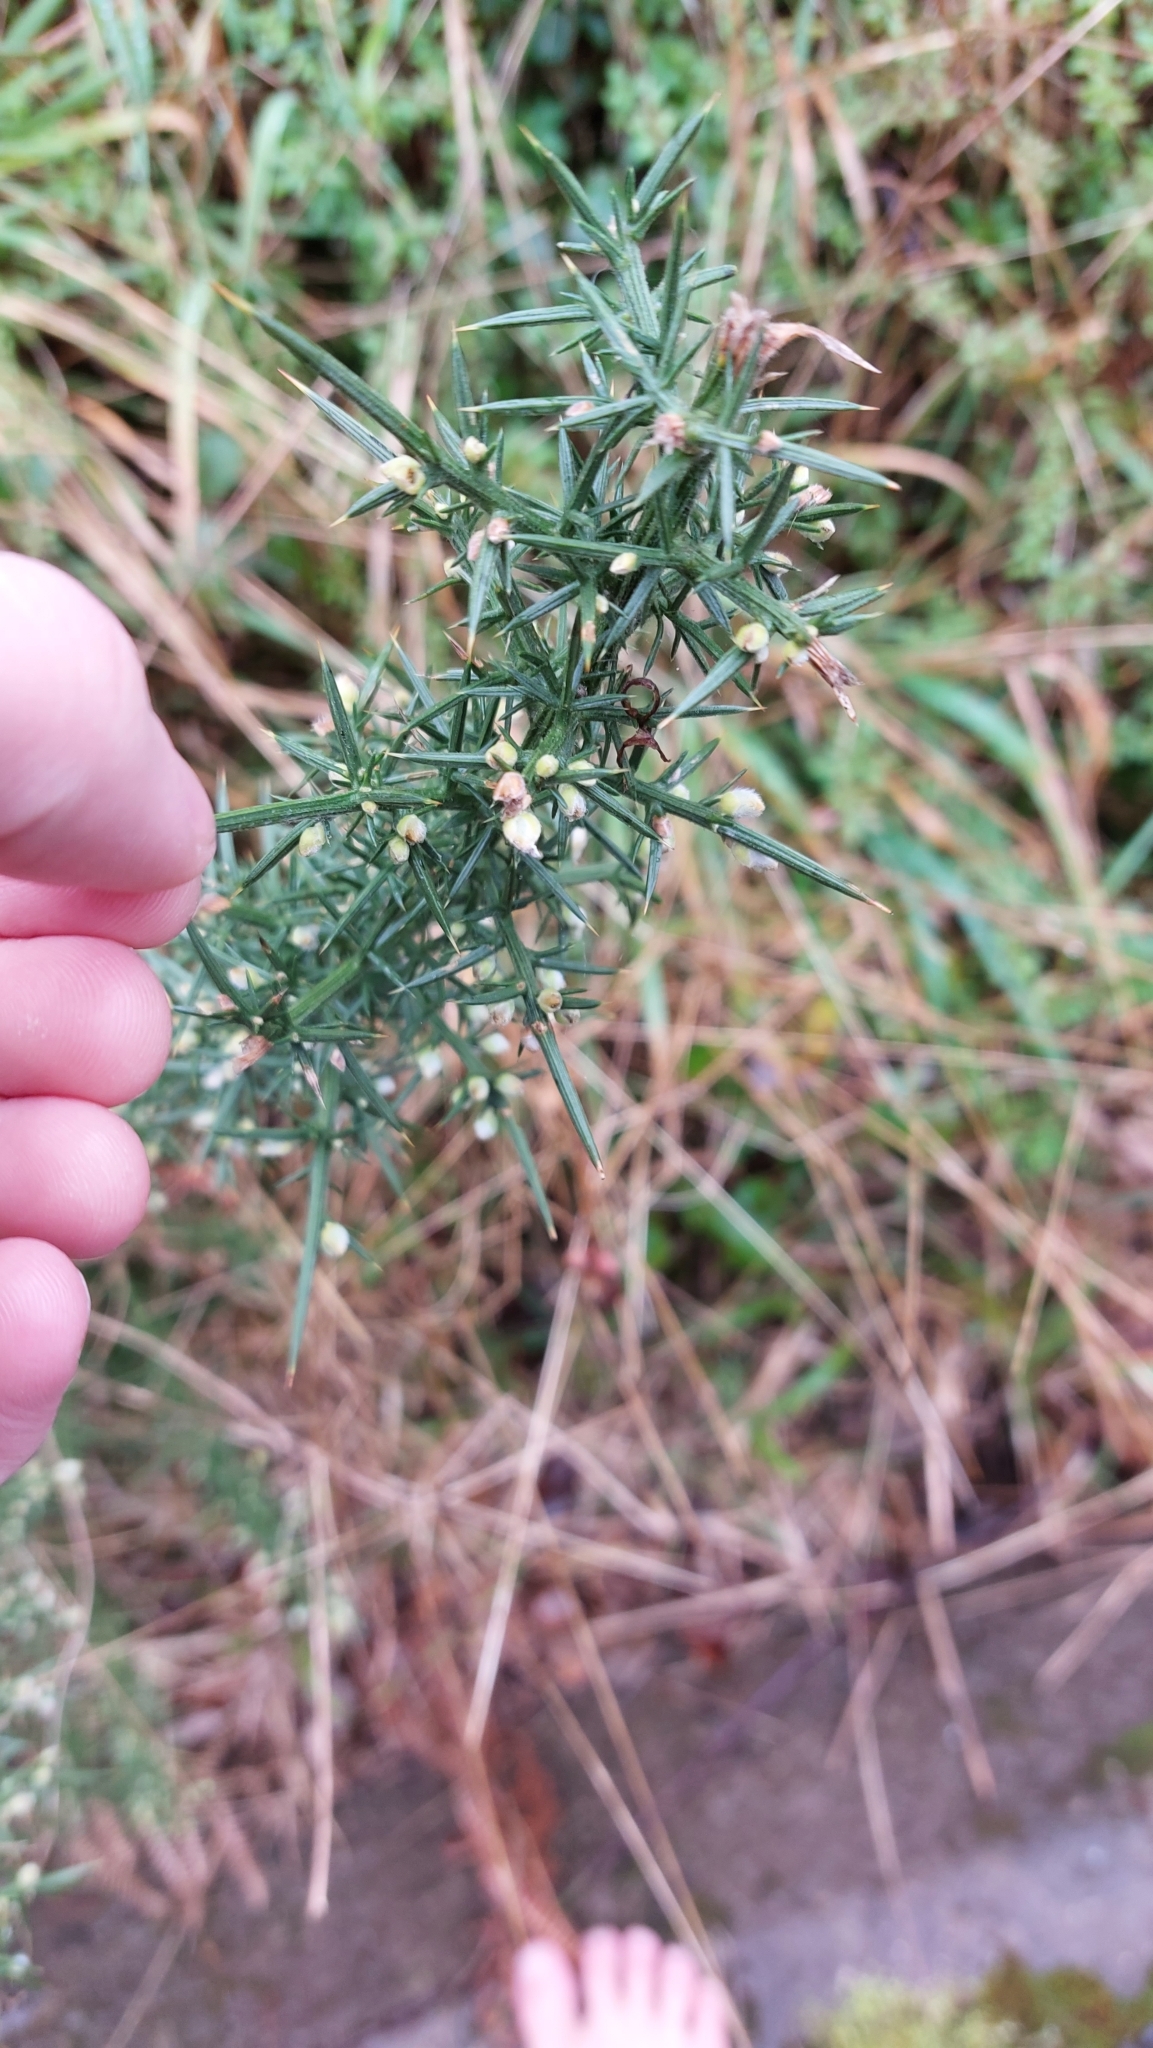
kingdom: Plantae
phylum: Tracheophyta
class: Magnoliopsida
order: Fabales
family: Fabaceae
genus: Ulex
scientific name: Ulex europaeus
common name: Common gorse
